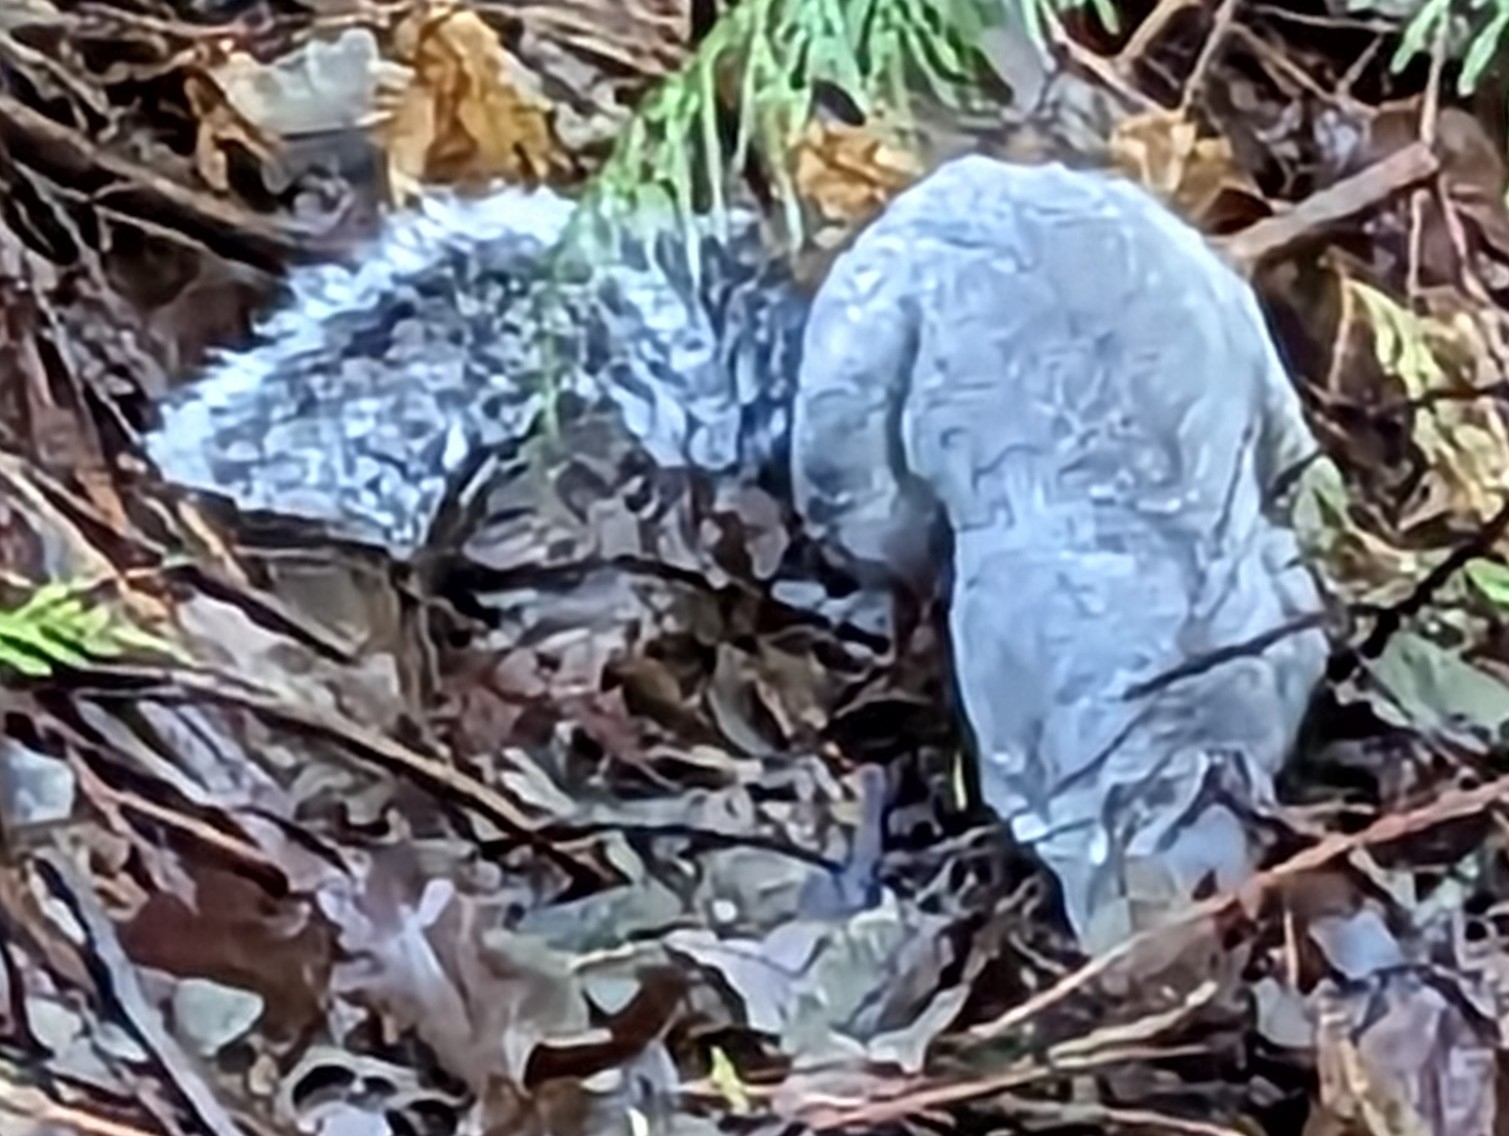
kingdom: Animalia
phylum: Chordata
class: Mammalia
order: Rodentia
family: Sciuridae
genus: Sciurus
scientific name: Sciurus griseus
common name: Western gray squirrel
